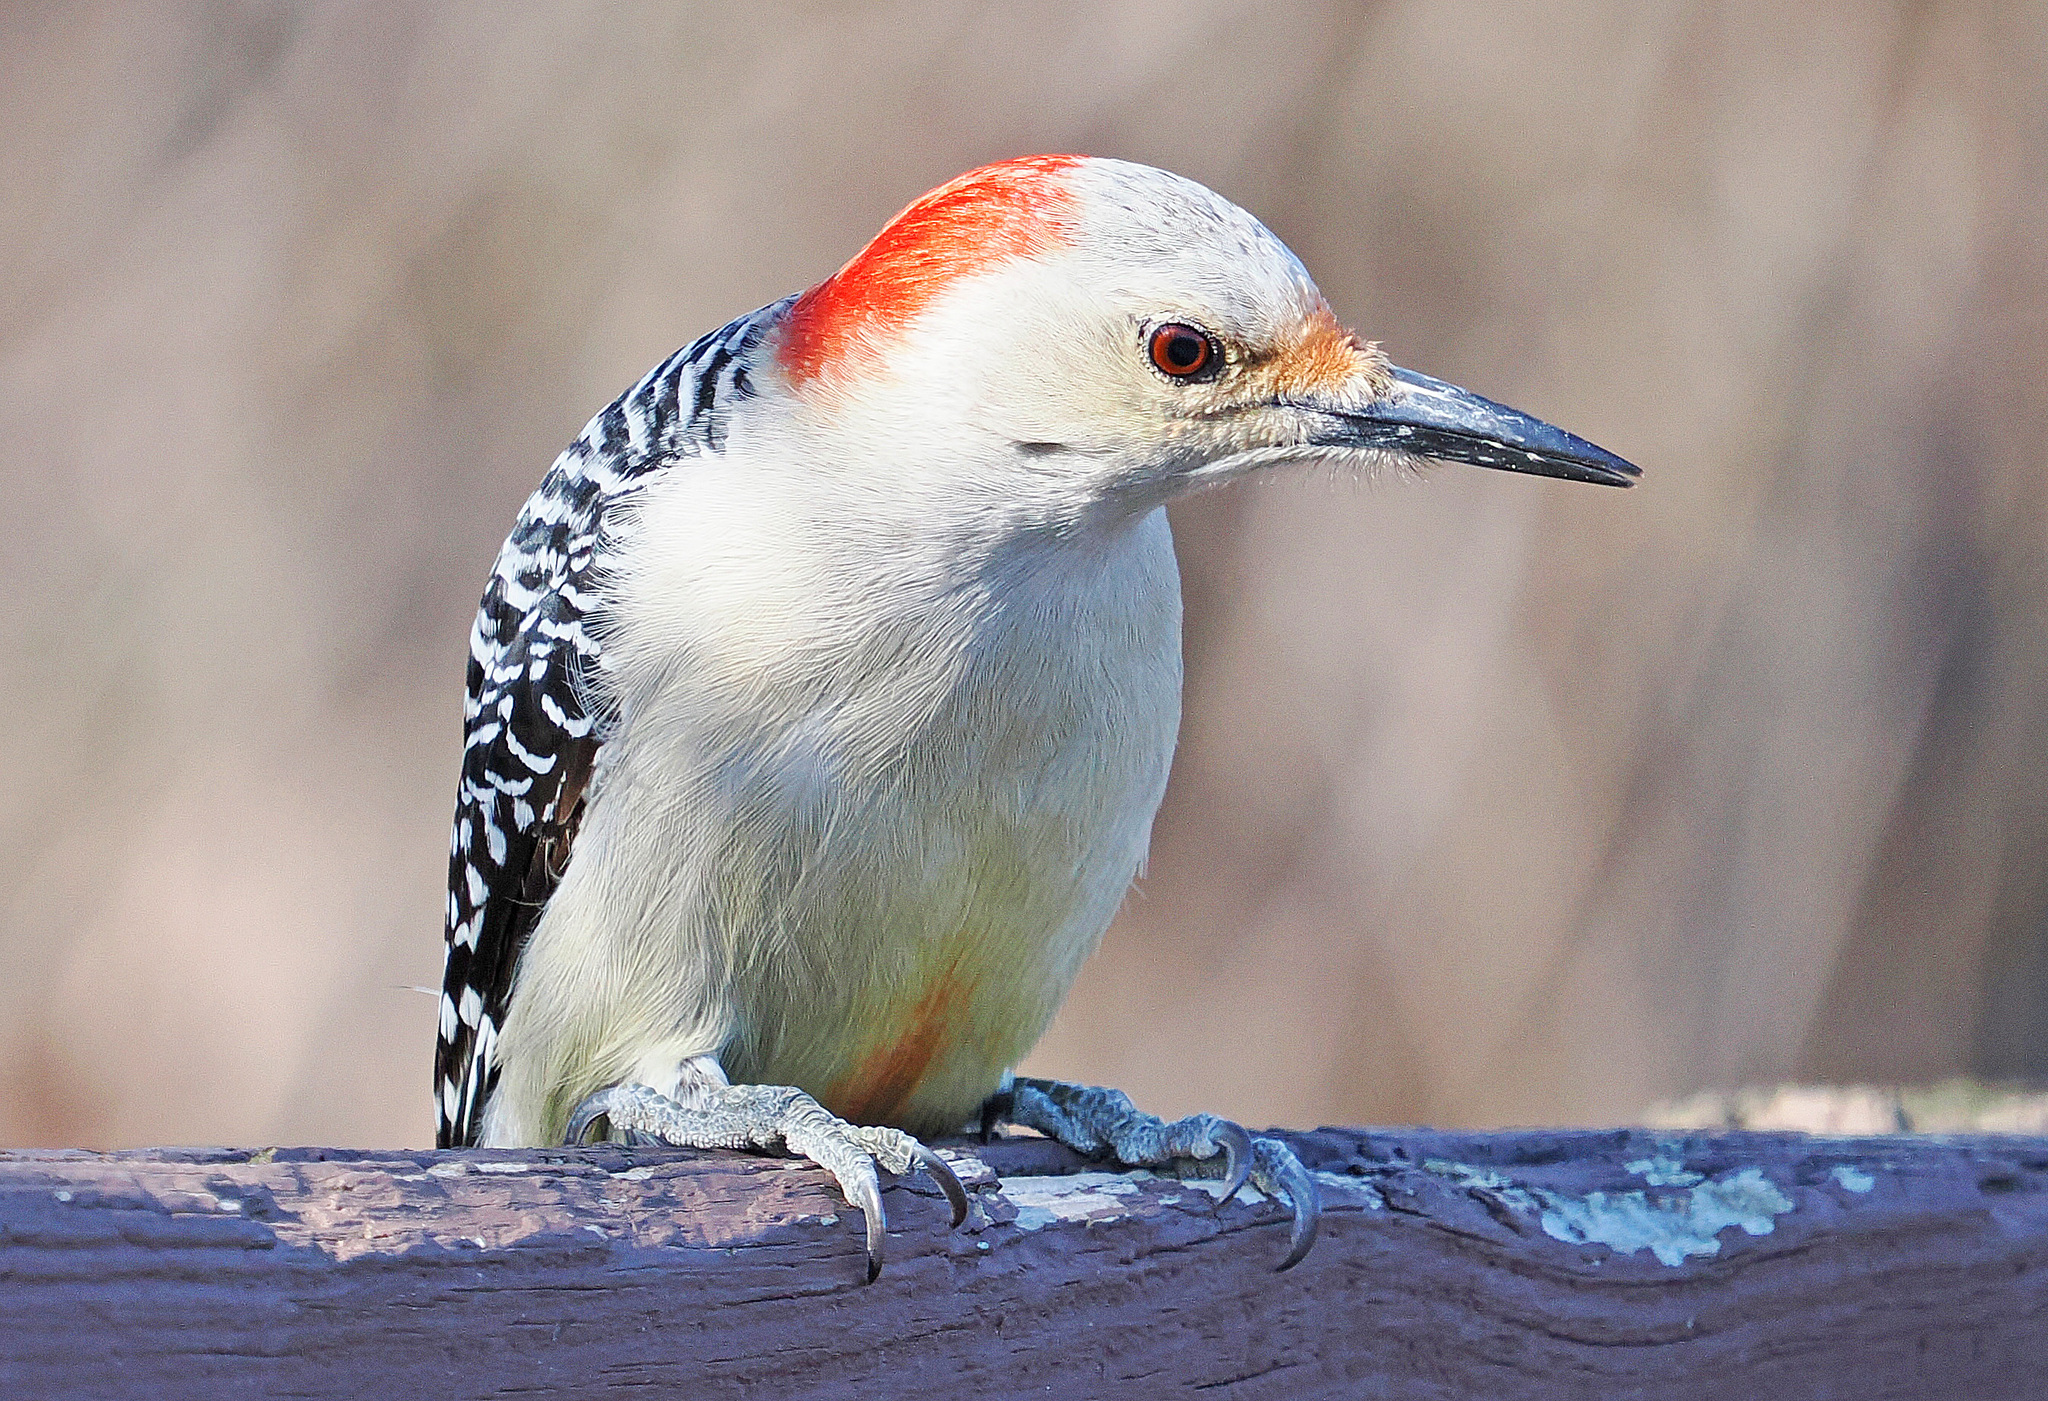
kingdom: Animalia
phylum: Chordata
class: Aves
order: Piciformes
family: Picidae
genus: Melanerpes
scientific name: Melanerpes carolinus
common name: Red-bellied woodpecker
